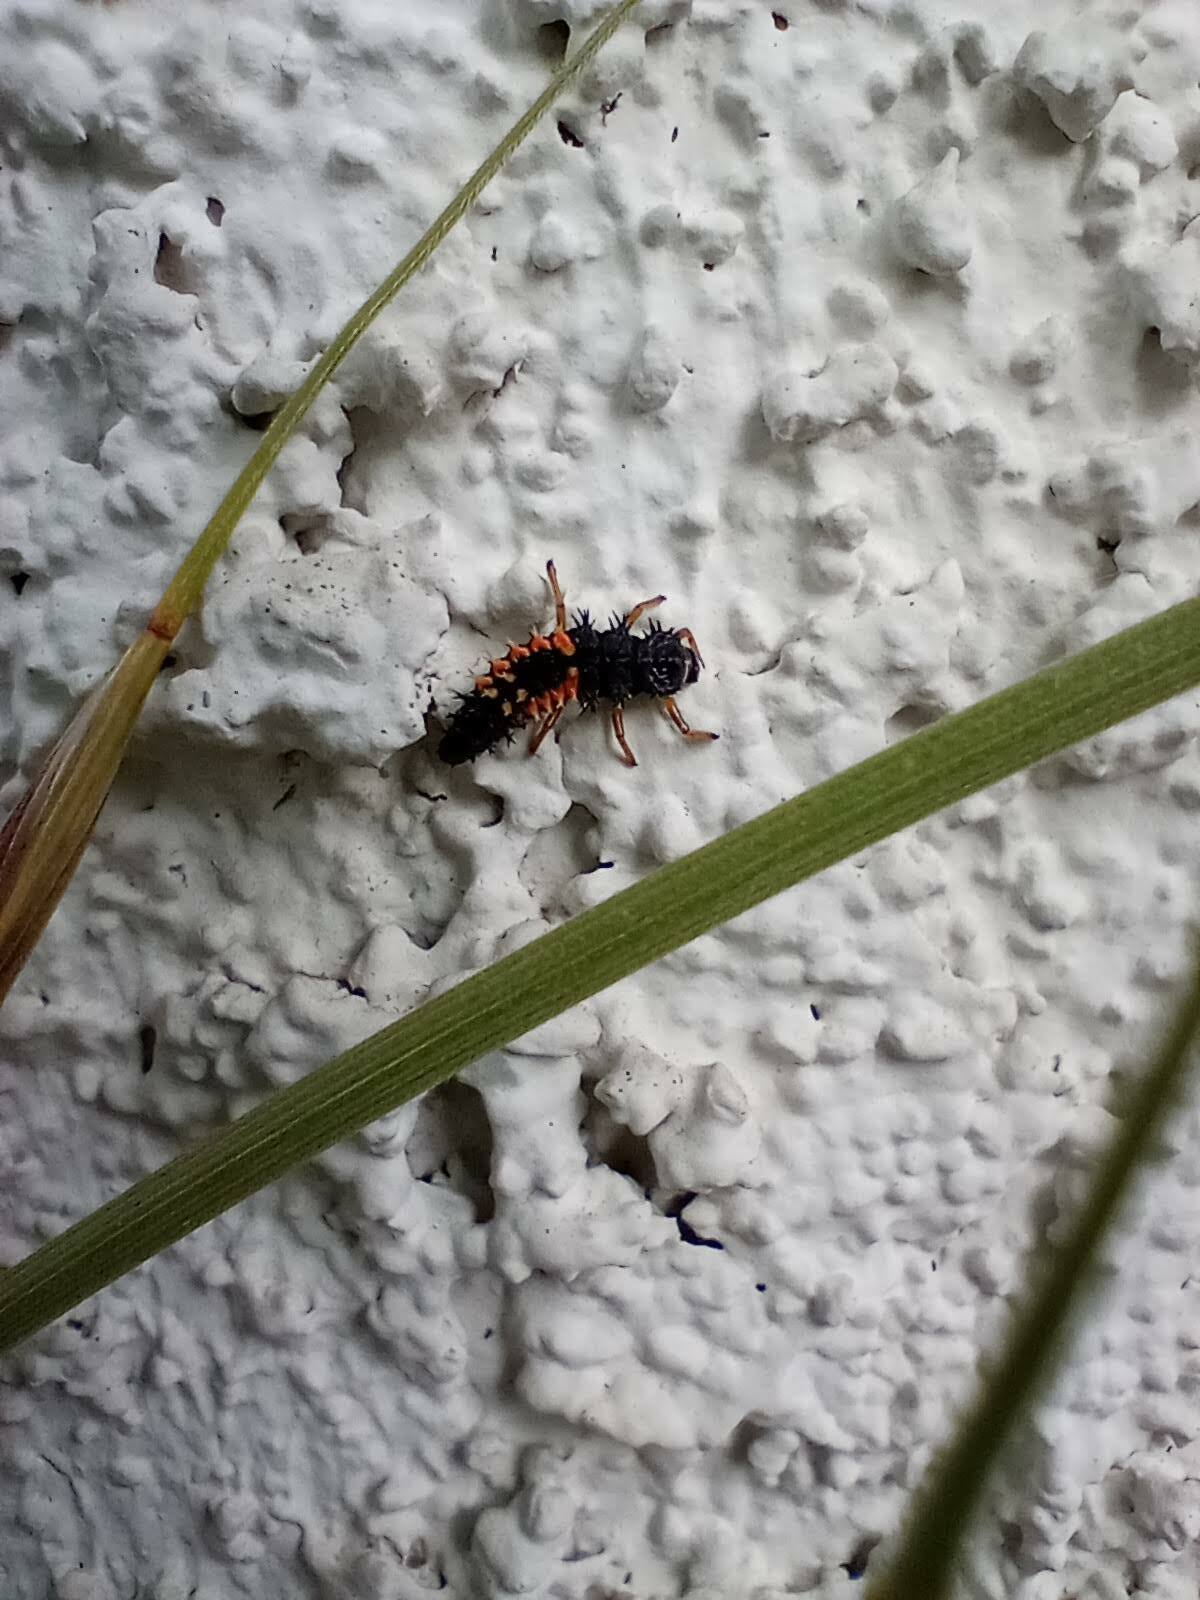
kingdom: Animalia
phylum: Arthropoda
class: Insecta
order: Coleoptera
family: Coccinellidae
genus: Harmonia
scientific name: Harmonia axyridis
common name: Harlequin ladybird
